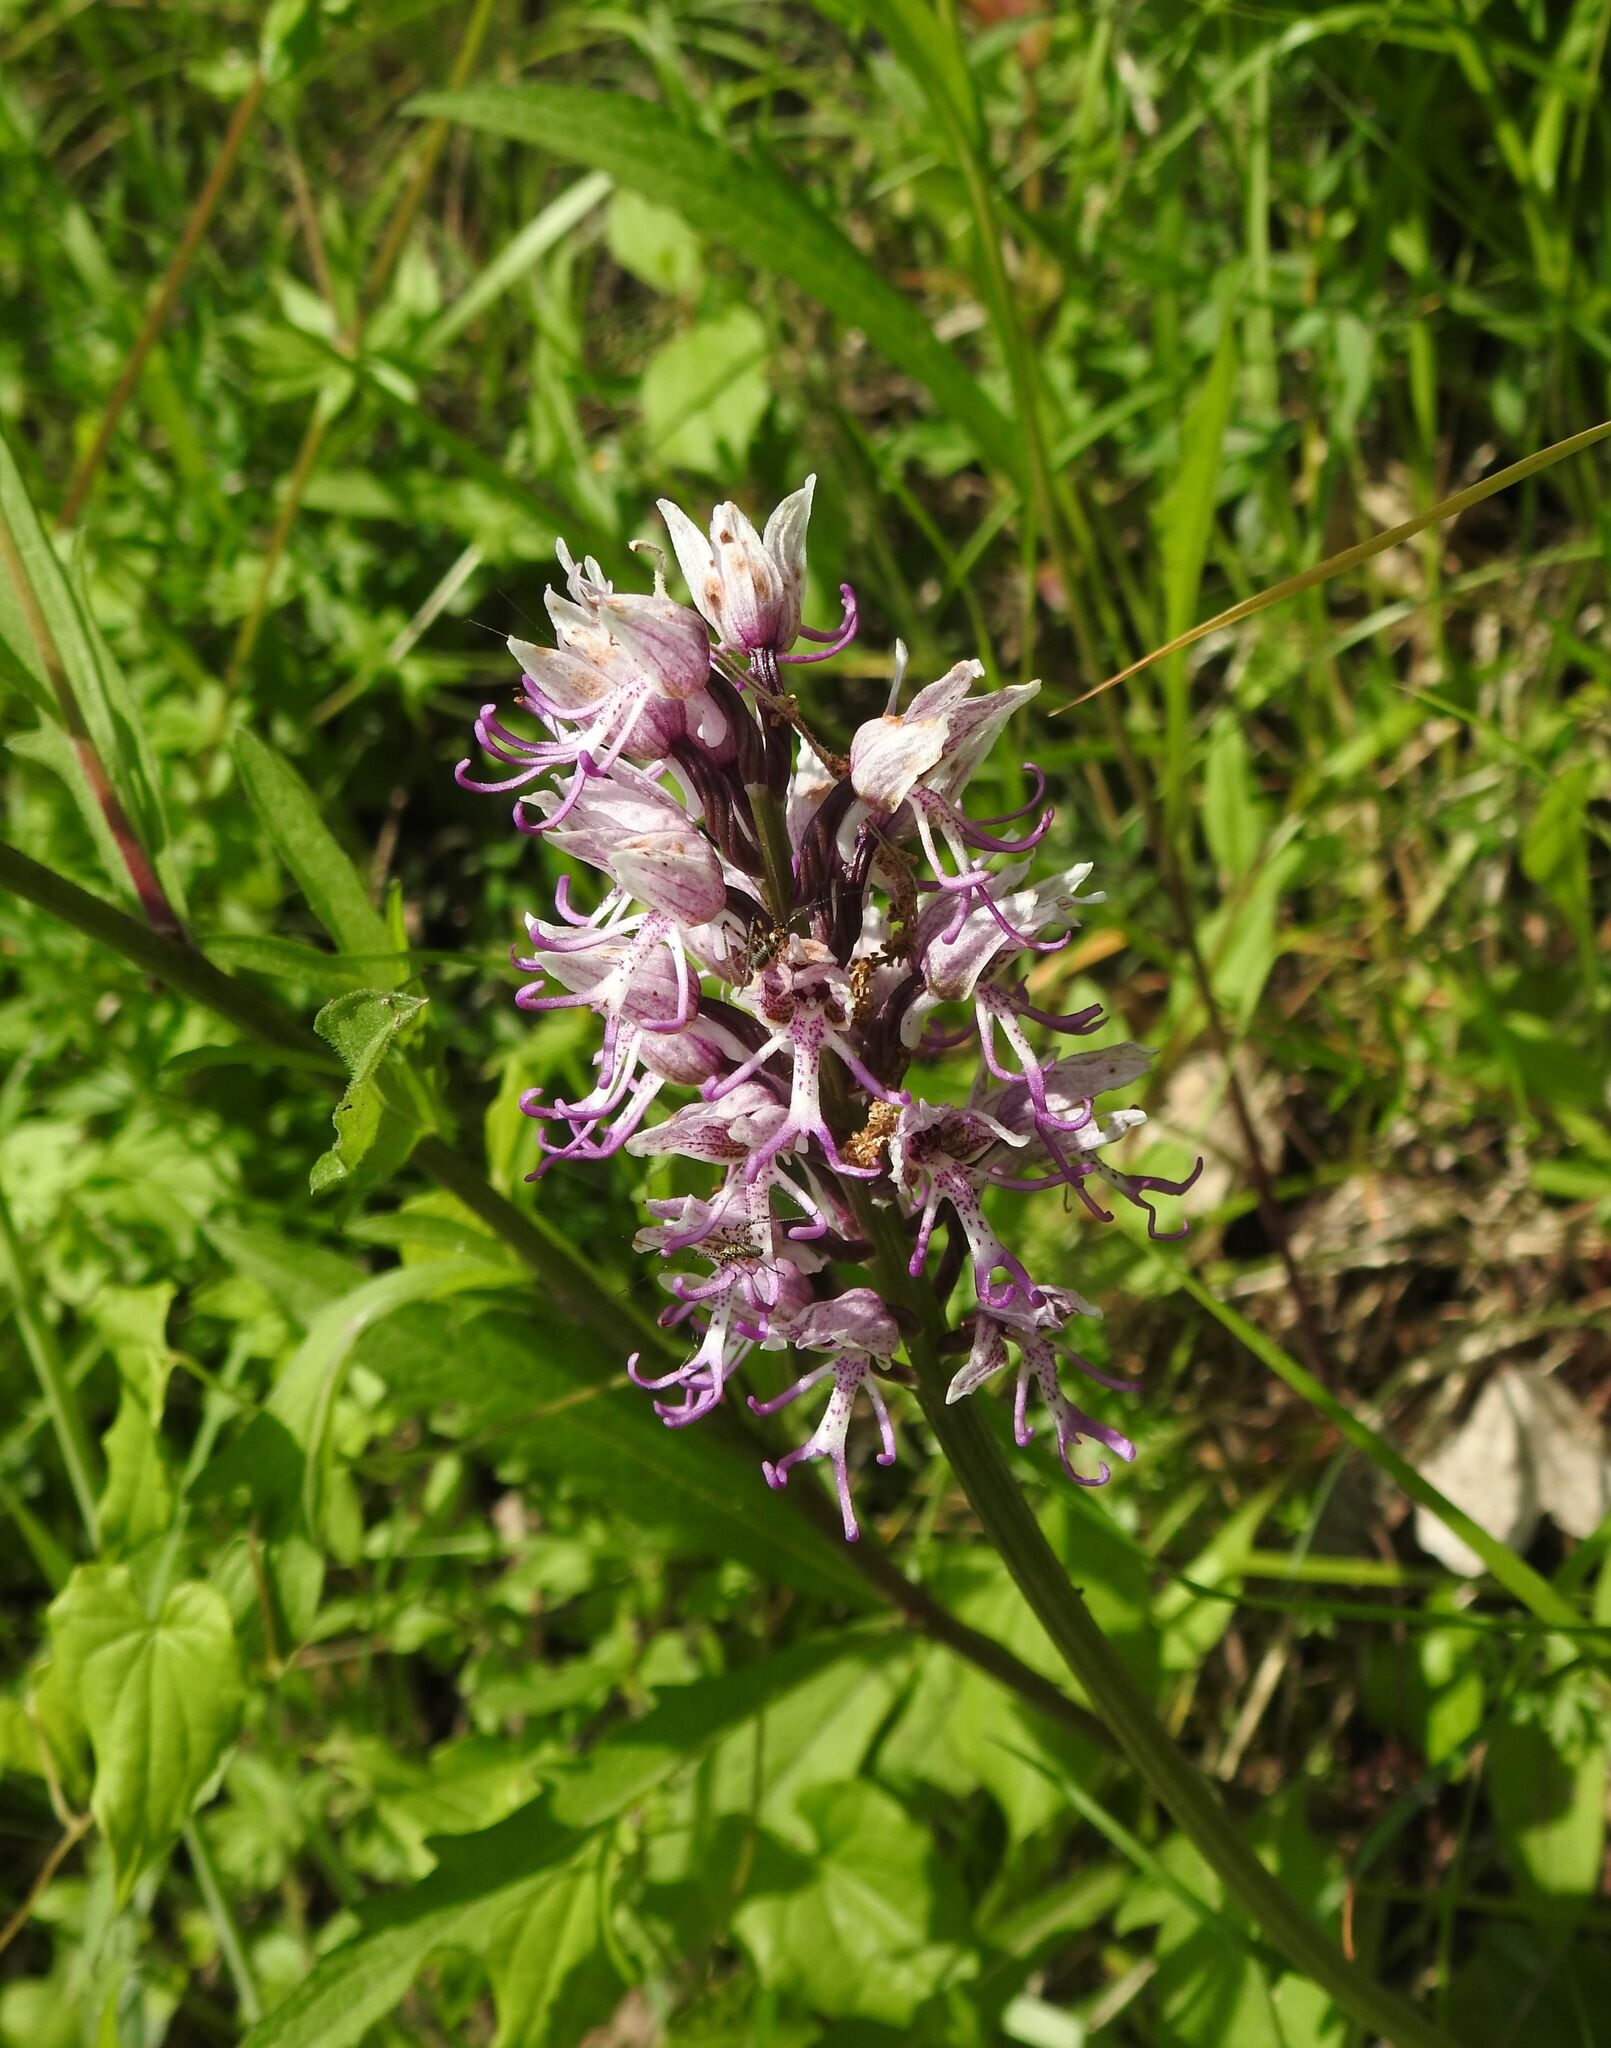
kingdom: Plantae
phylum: Tracheophyta
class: Liliopsida
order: Asparagales
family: Orchidaceae
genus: Orchis
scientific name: Orchis simia
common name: Monkey orchid
